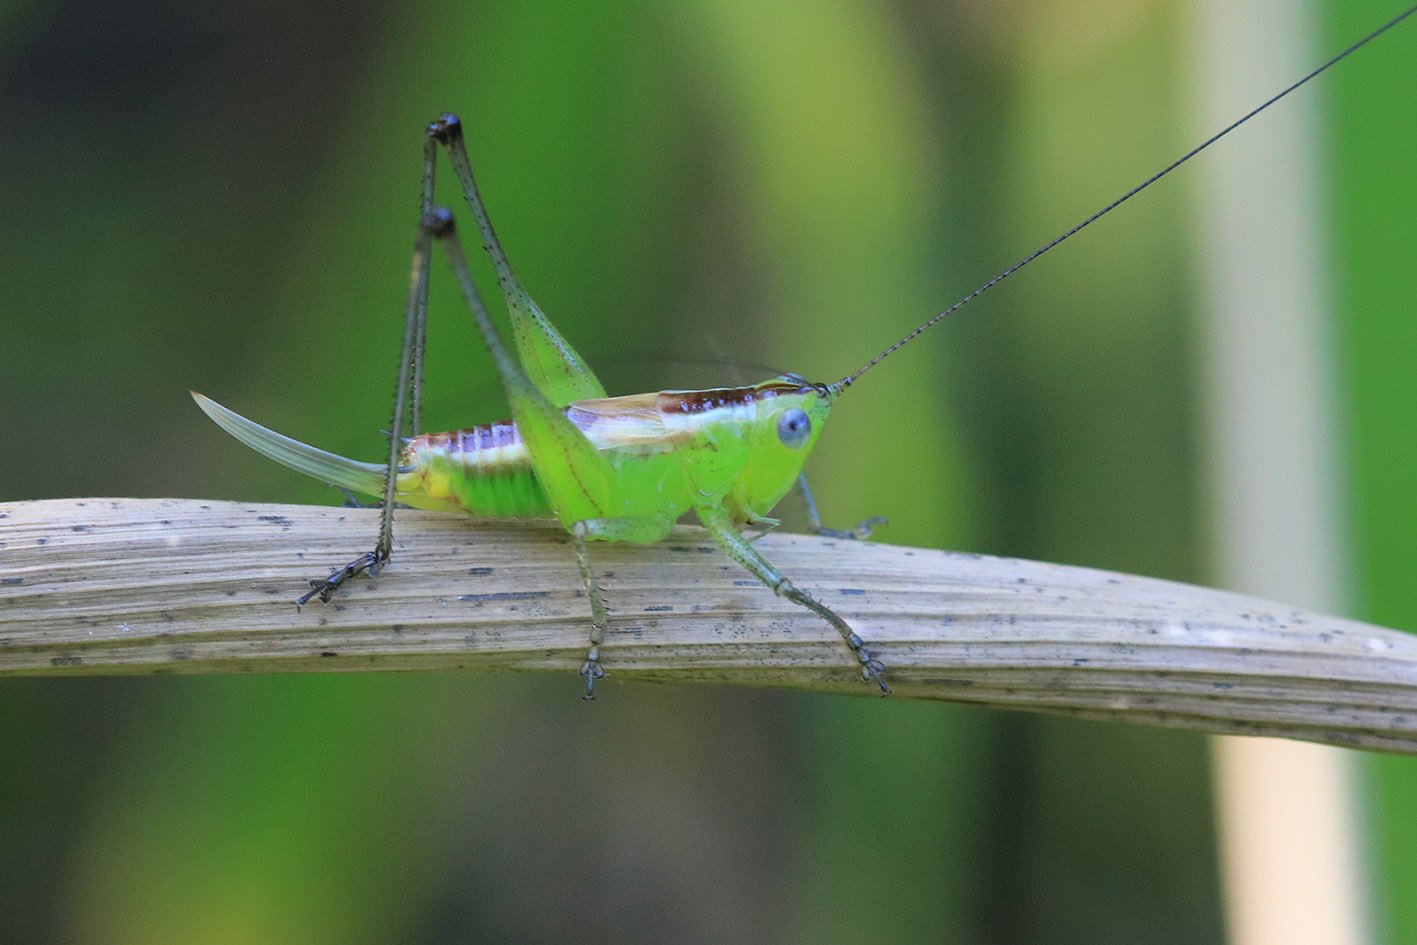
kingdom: Animalia
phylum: Arthropoda
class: Insecta
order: Orthoptera
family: Tettigoniidae
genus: Conocephalus
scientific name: Conocephalus ochrotelus
